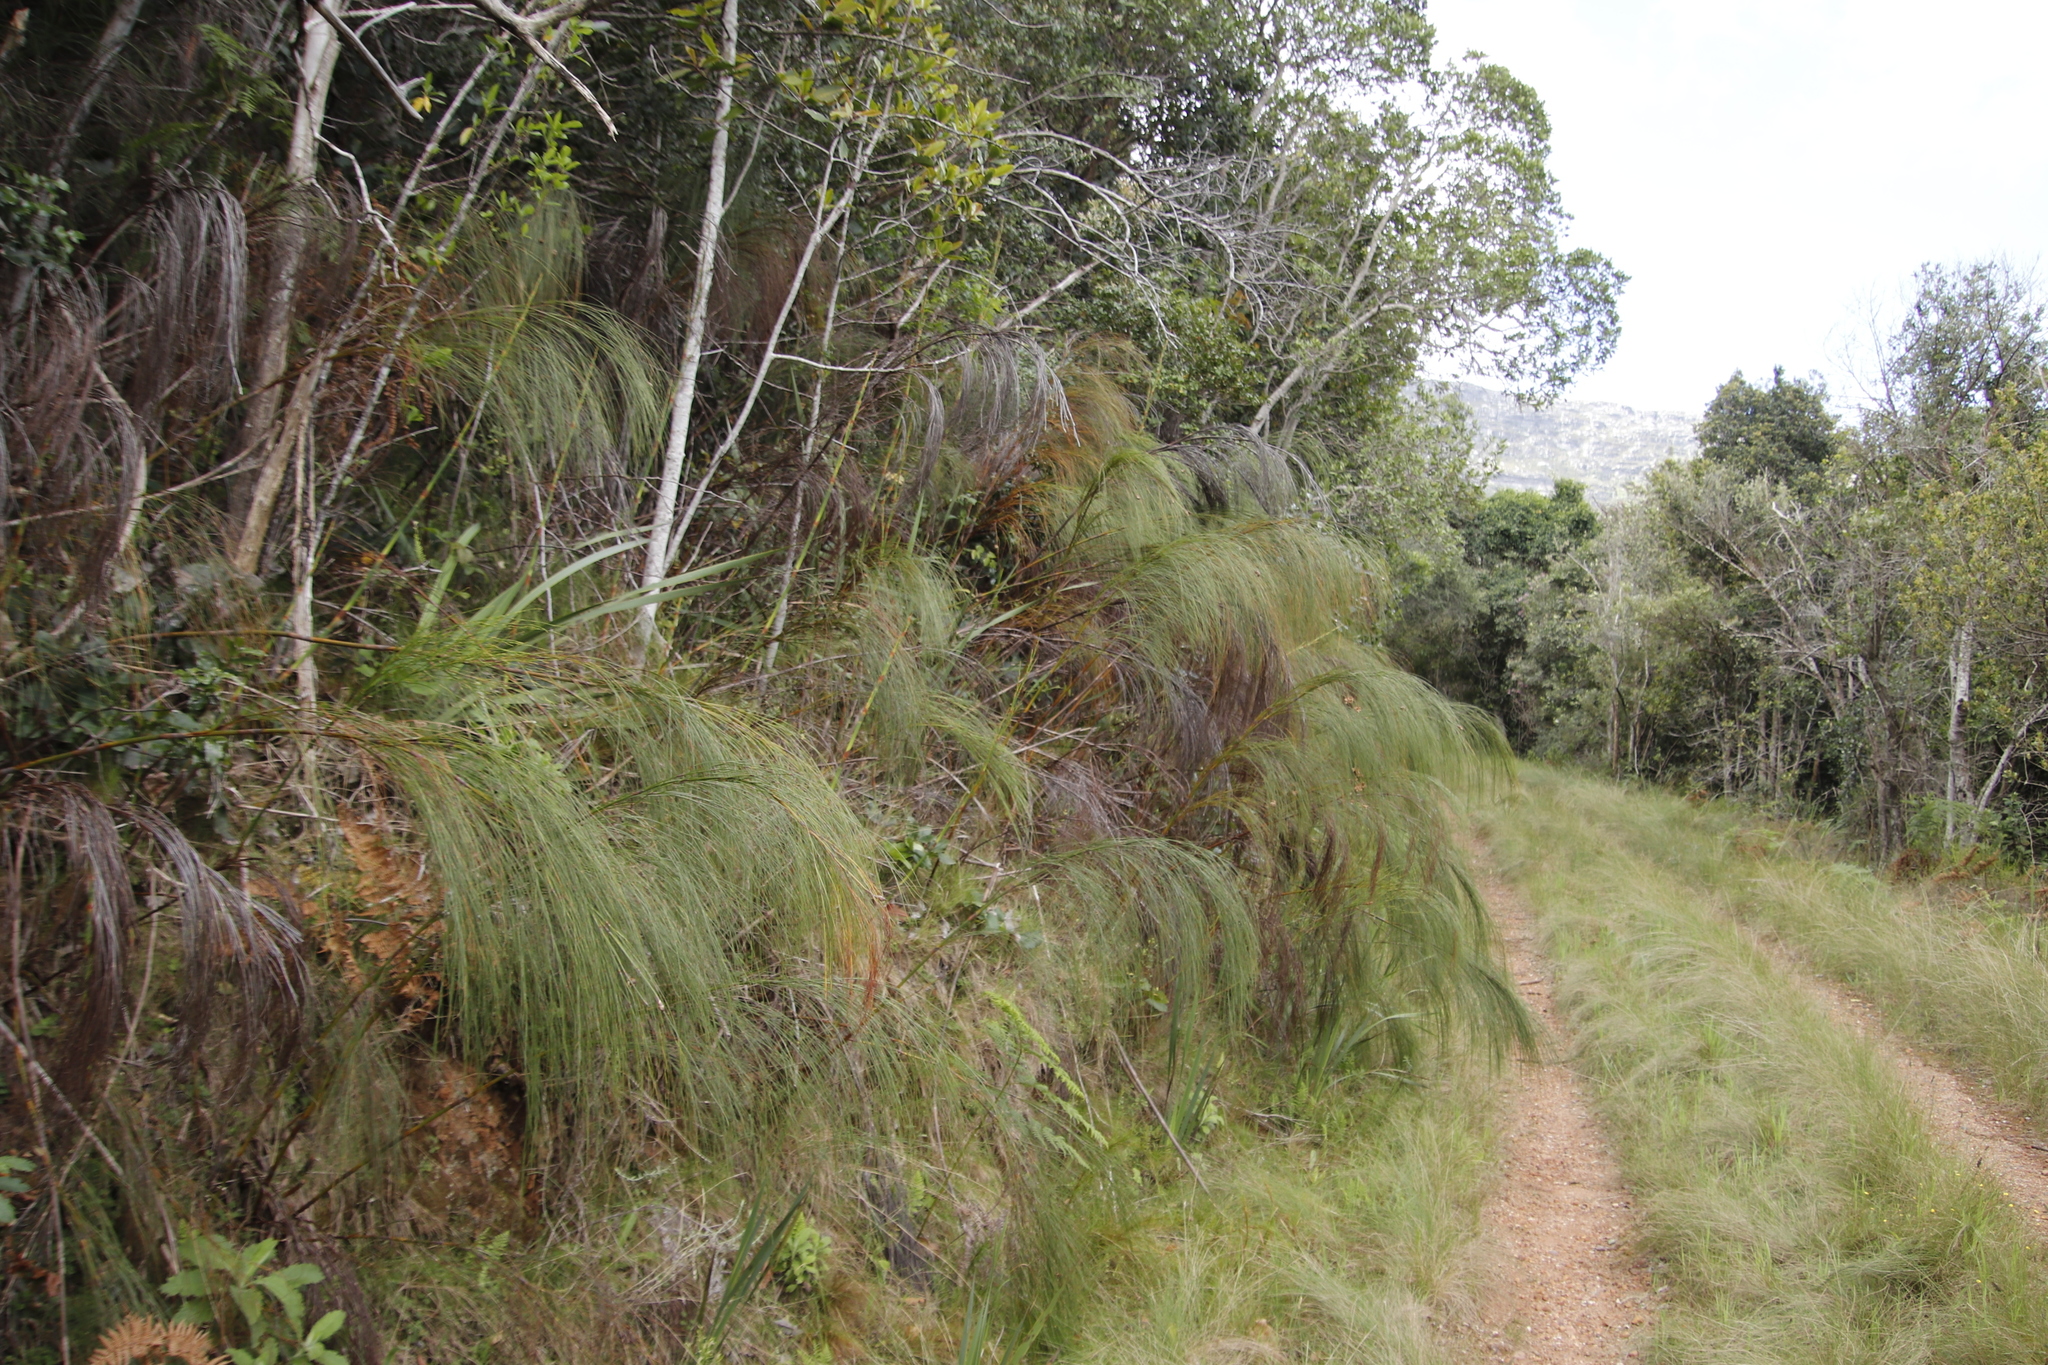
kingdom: Plantae
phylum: Tracheophyta
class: Liliopsida
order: Poales
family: Restionaceae
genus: Cannomois
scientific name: Cannomois virgata
